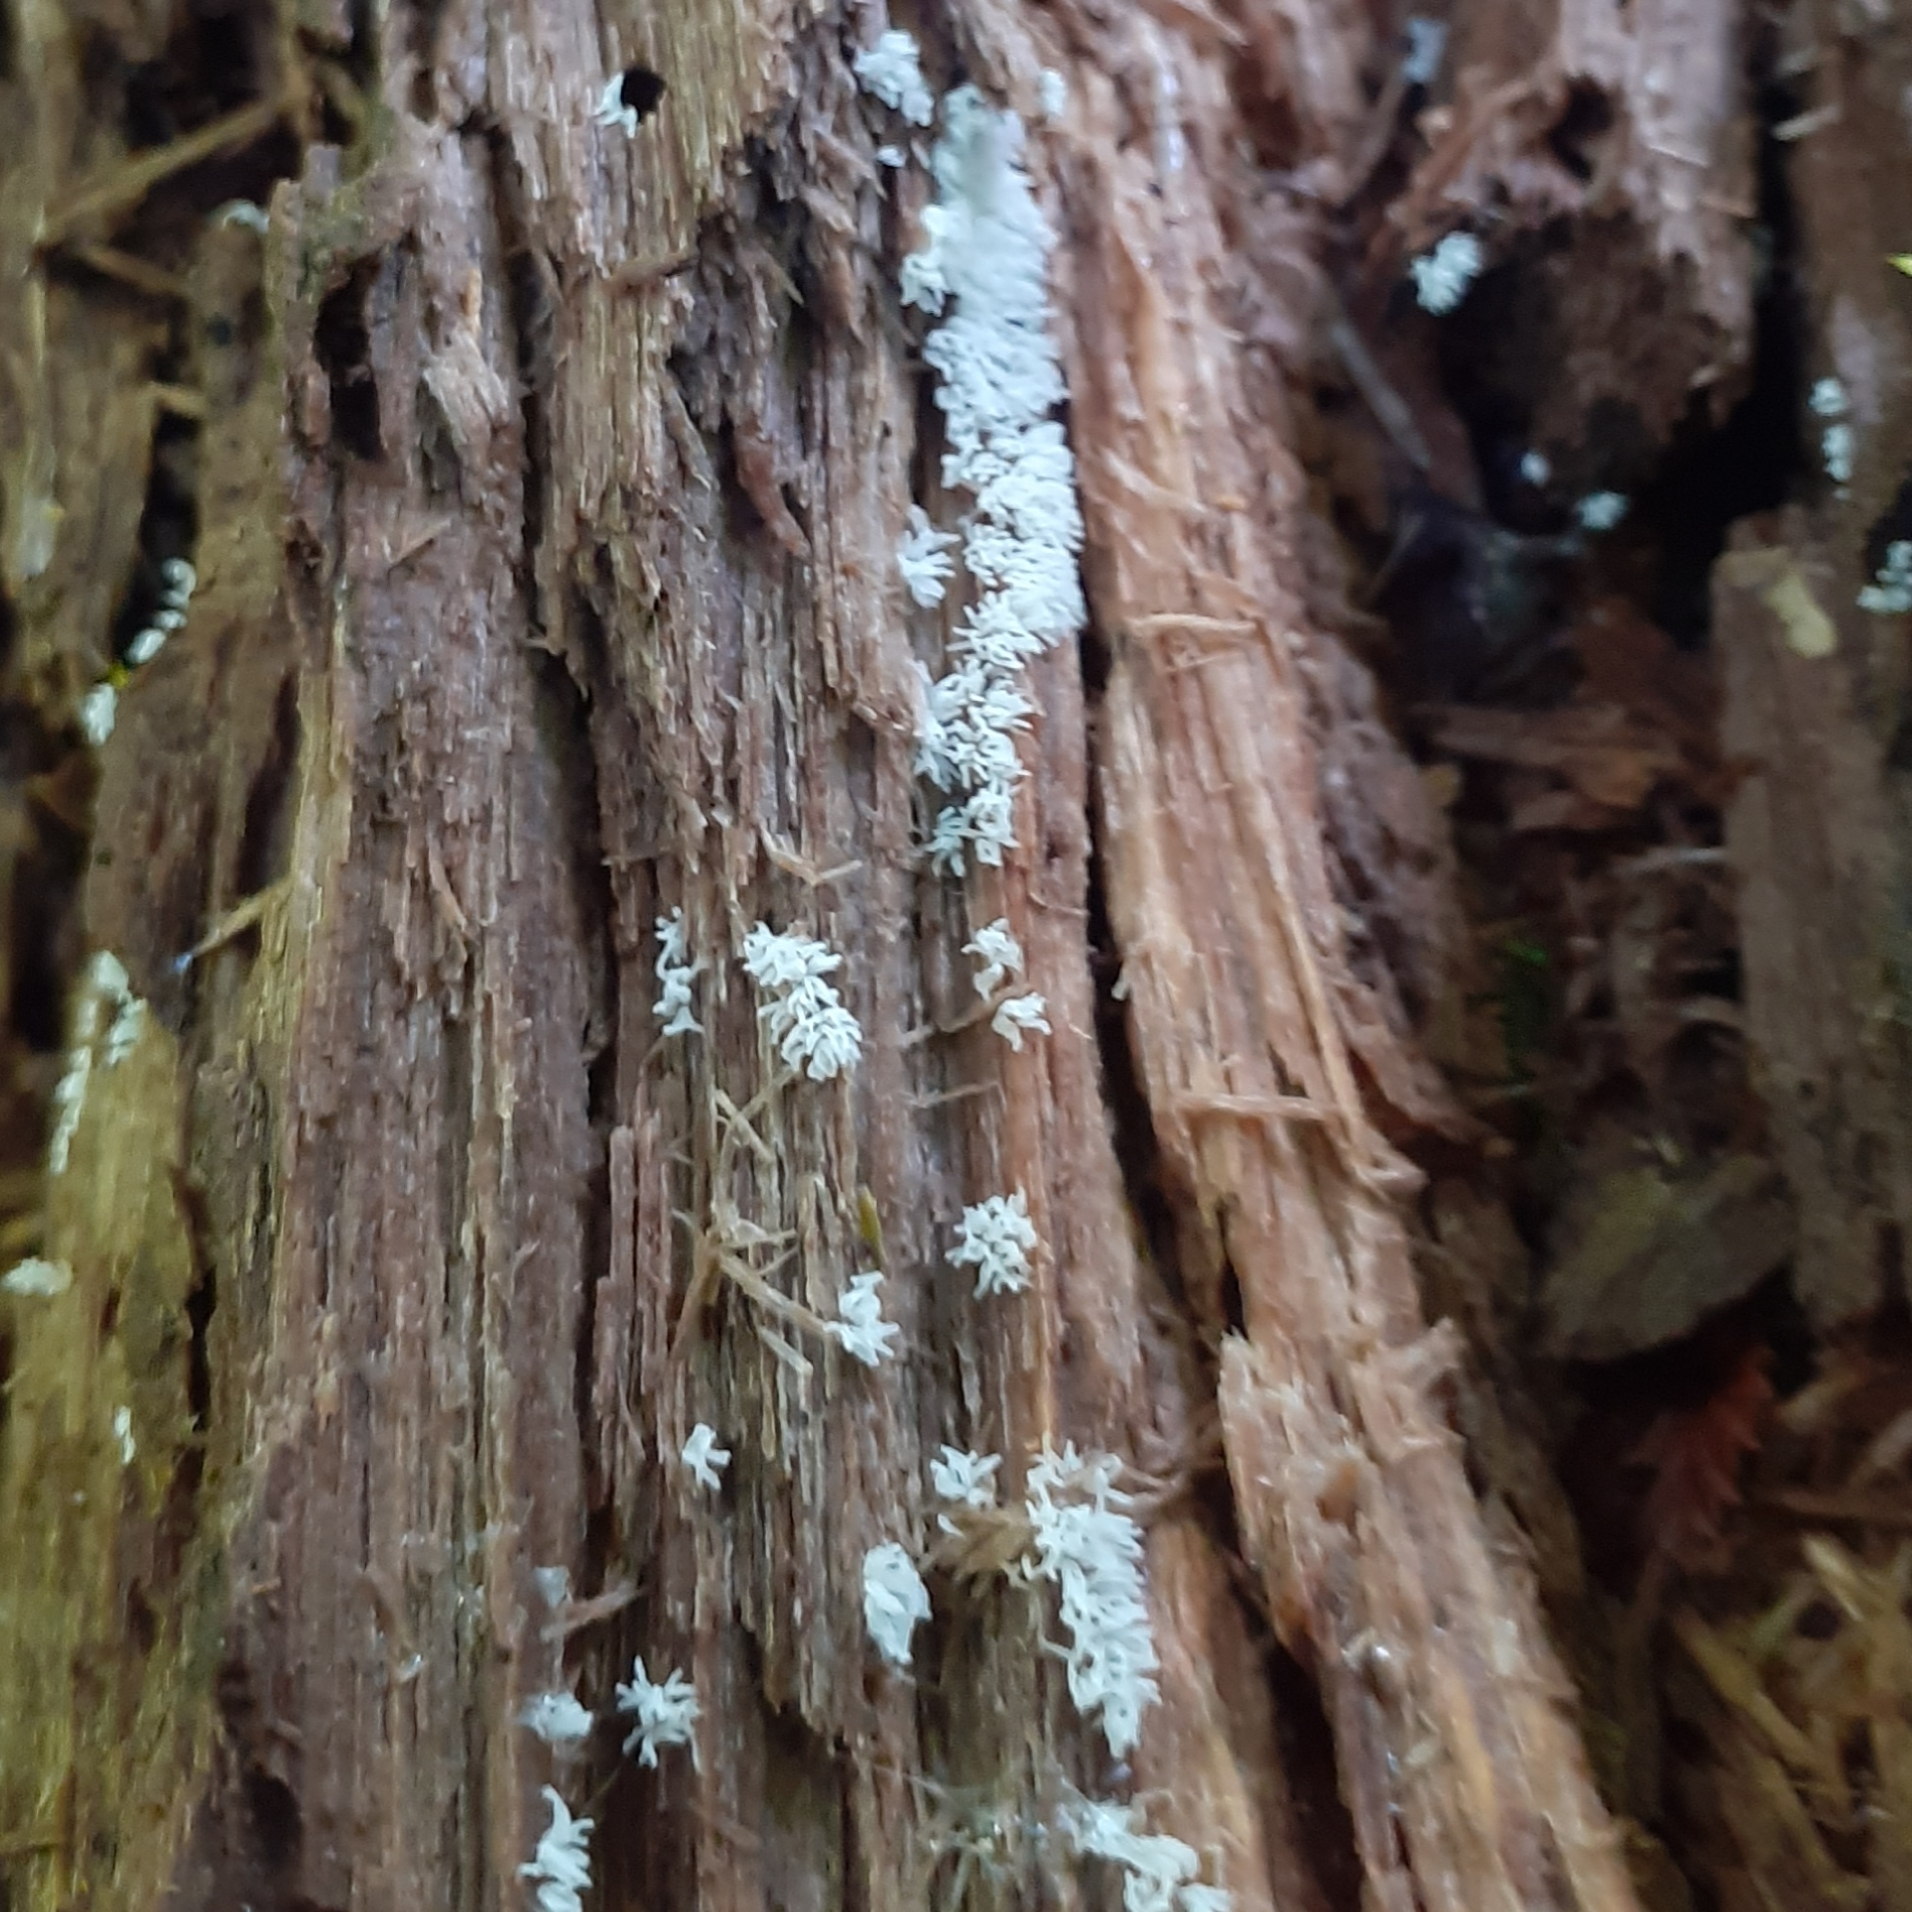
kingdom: Protozoa
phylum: Mycetozoa
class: Protosteliomycetes
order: Ceratiomyxales
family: Ceratiomyxaceae
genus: Ceratiomyxa
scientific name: Ceratiomyxa fruticulosa
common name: Honeycomb coral slime mold
